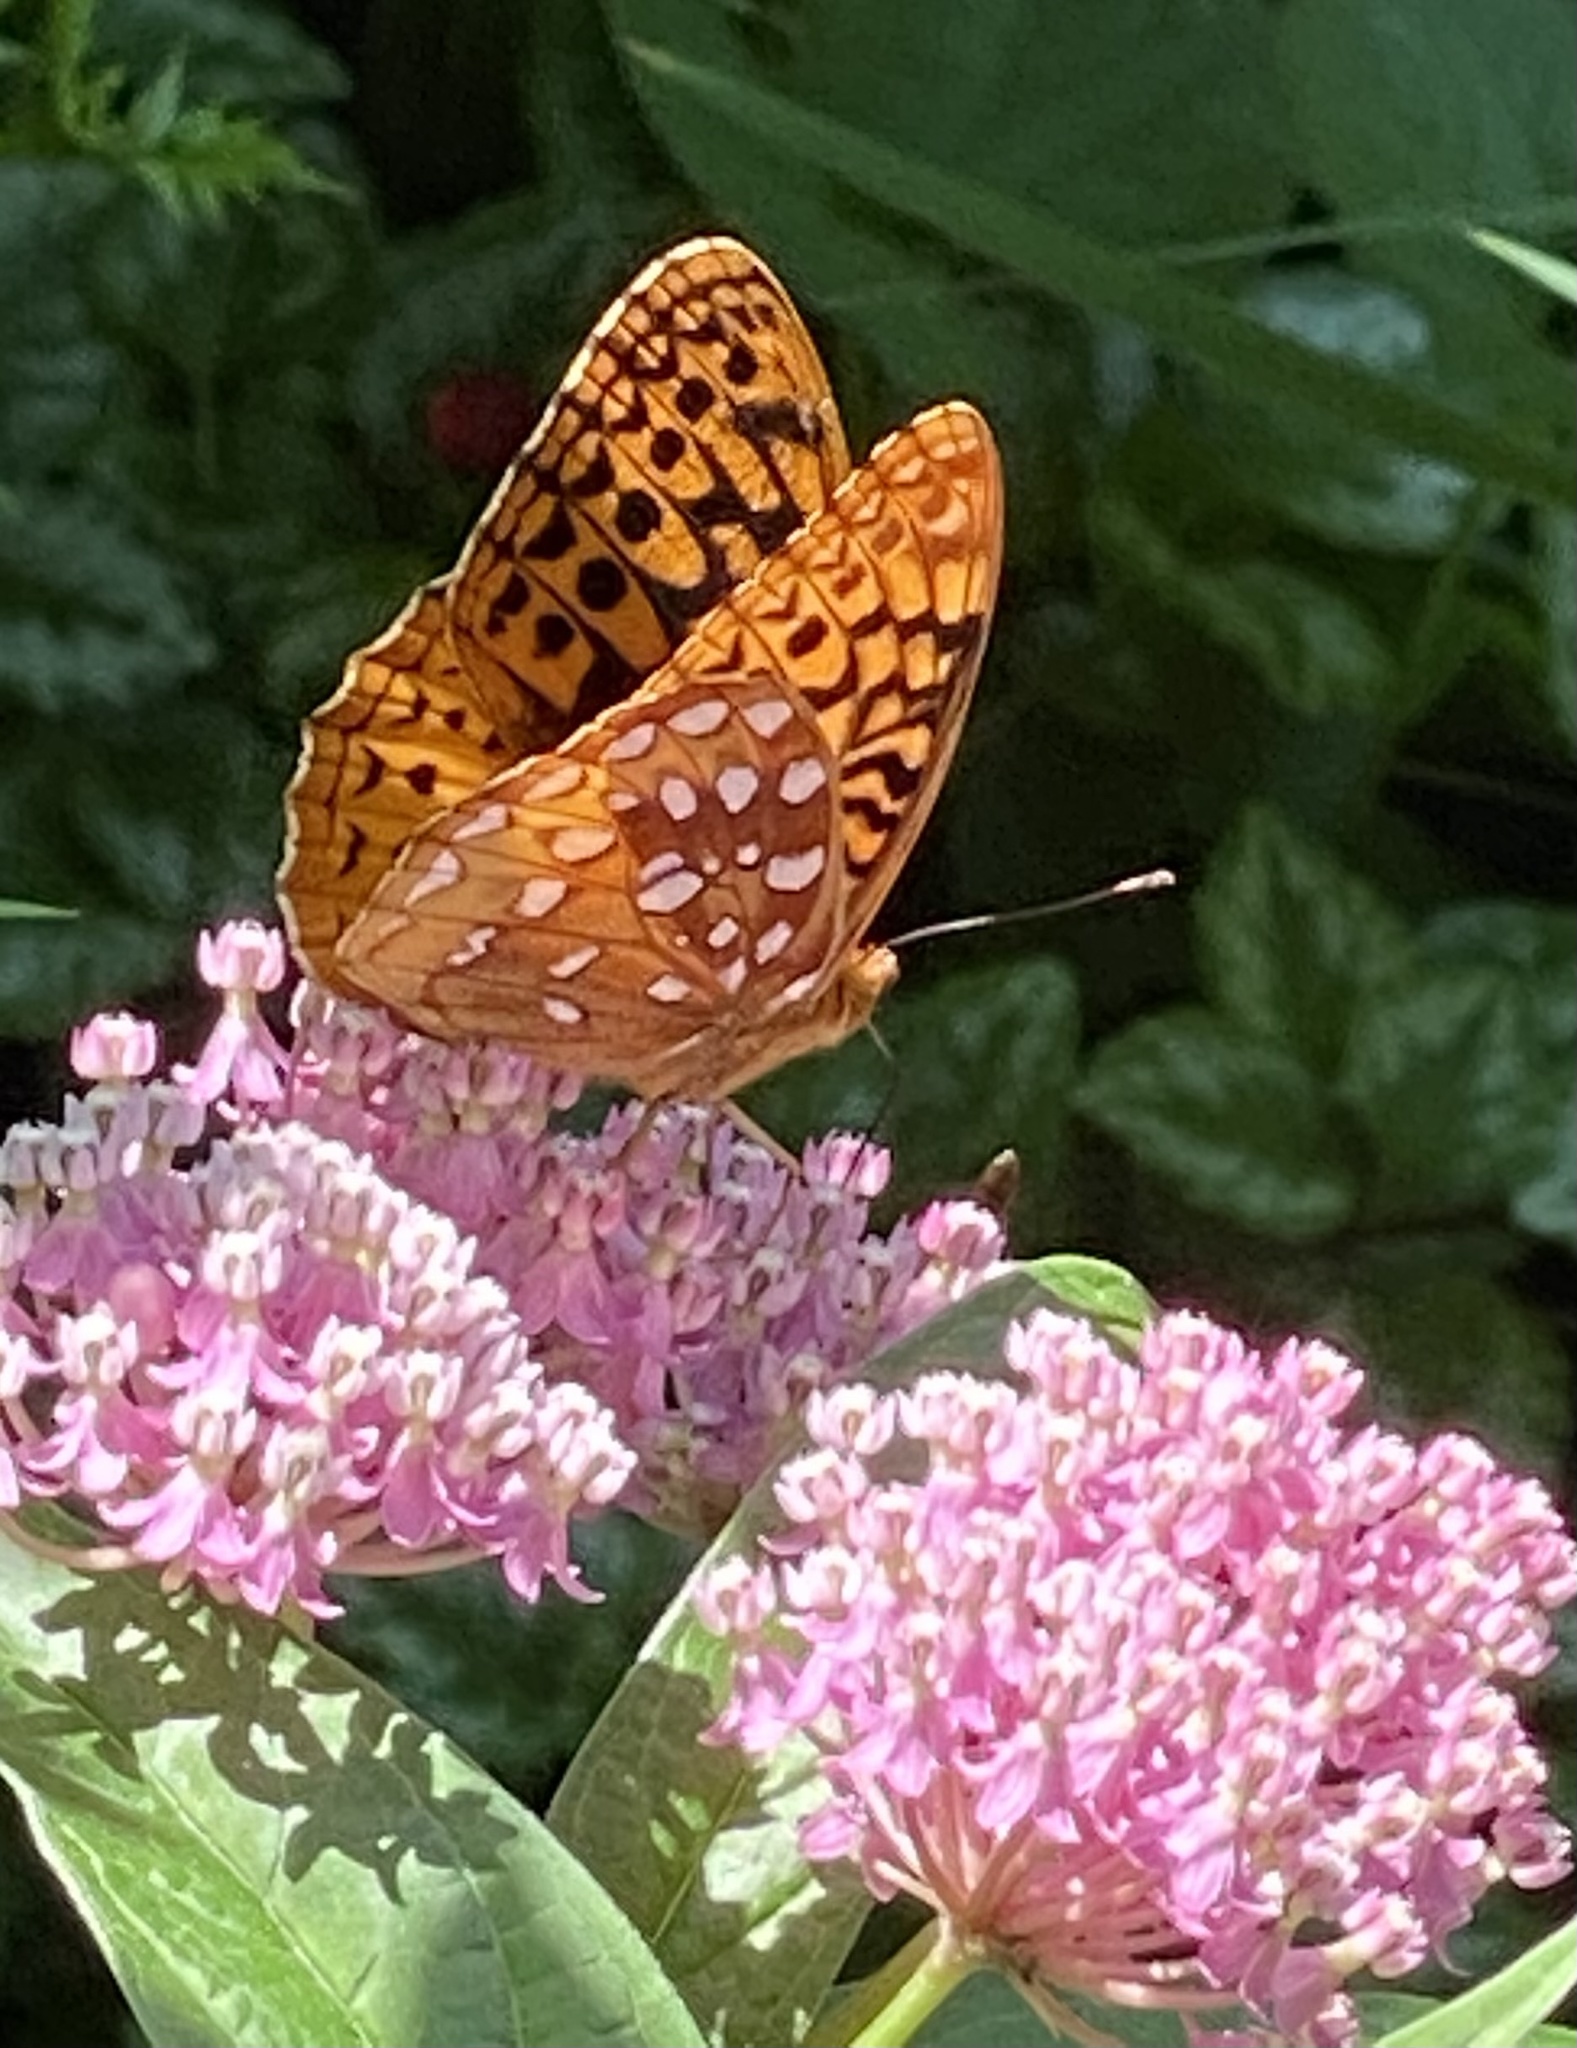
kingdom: Animalia
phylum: Arthropoda
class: Insecta
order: Lepidoptera
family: Nymphalidae
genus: Speyeria
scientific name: Speyeria cybele
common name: Great spangled fritillary
